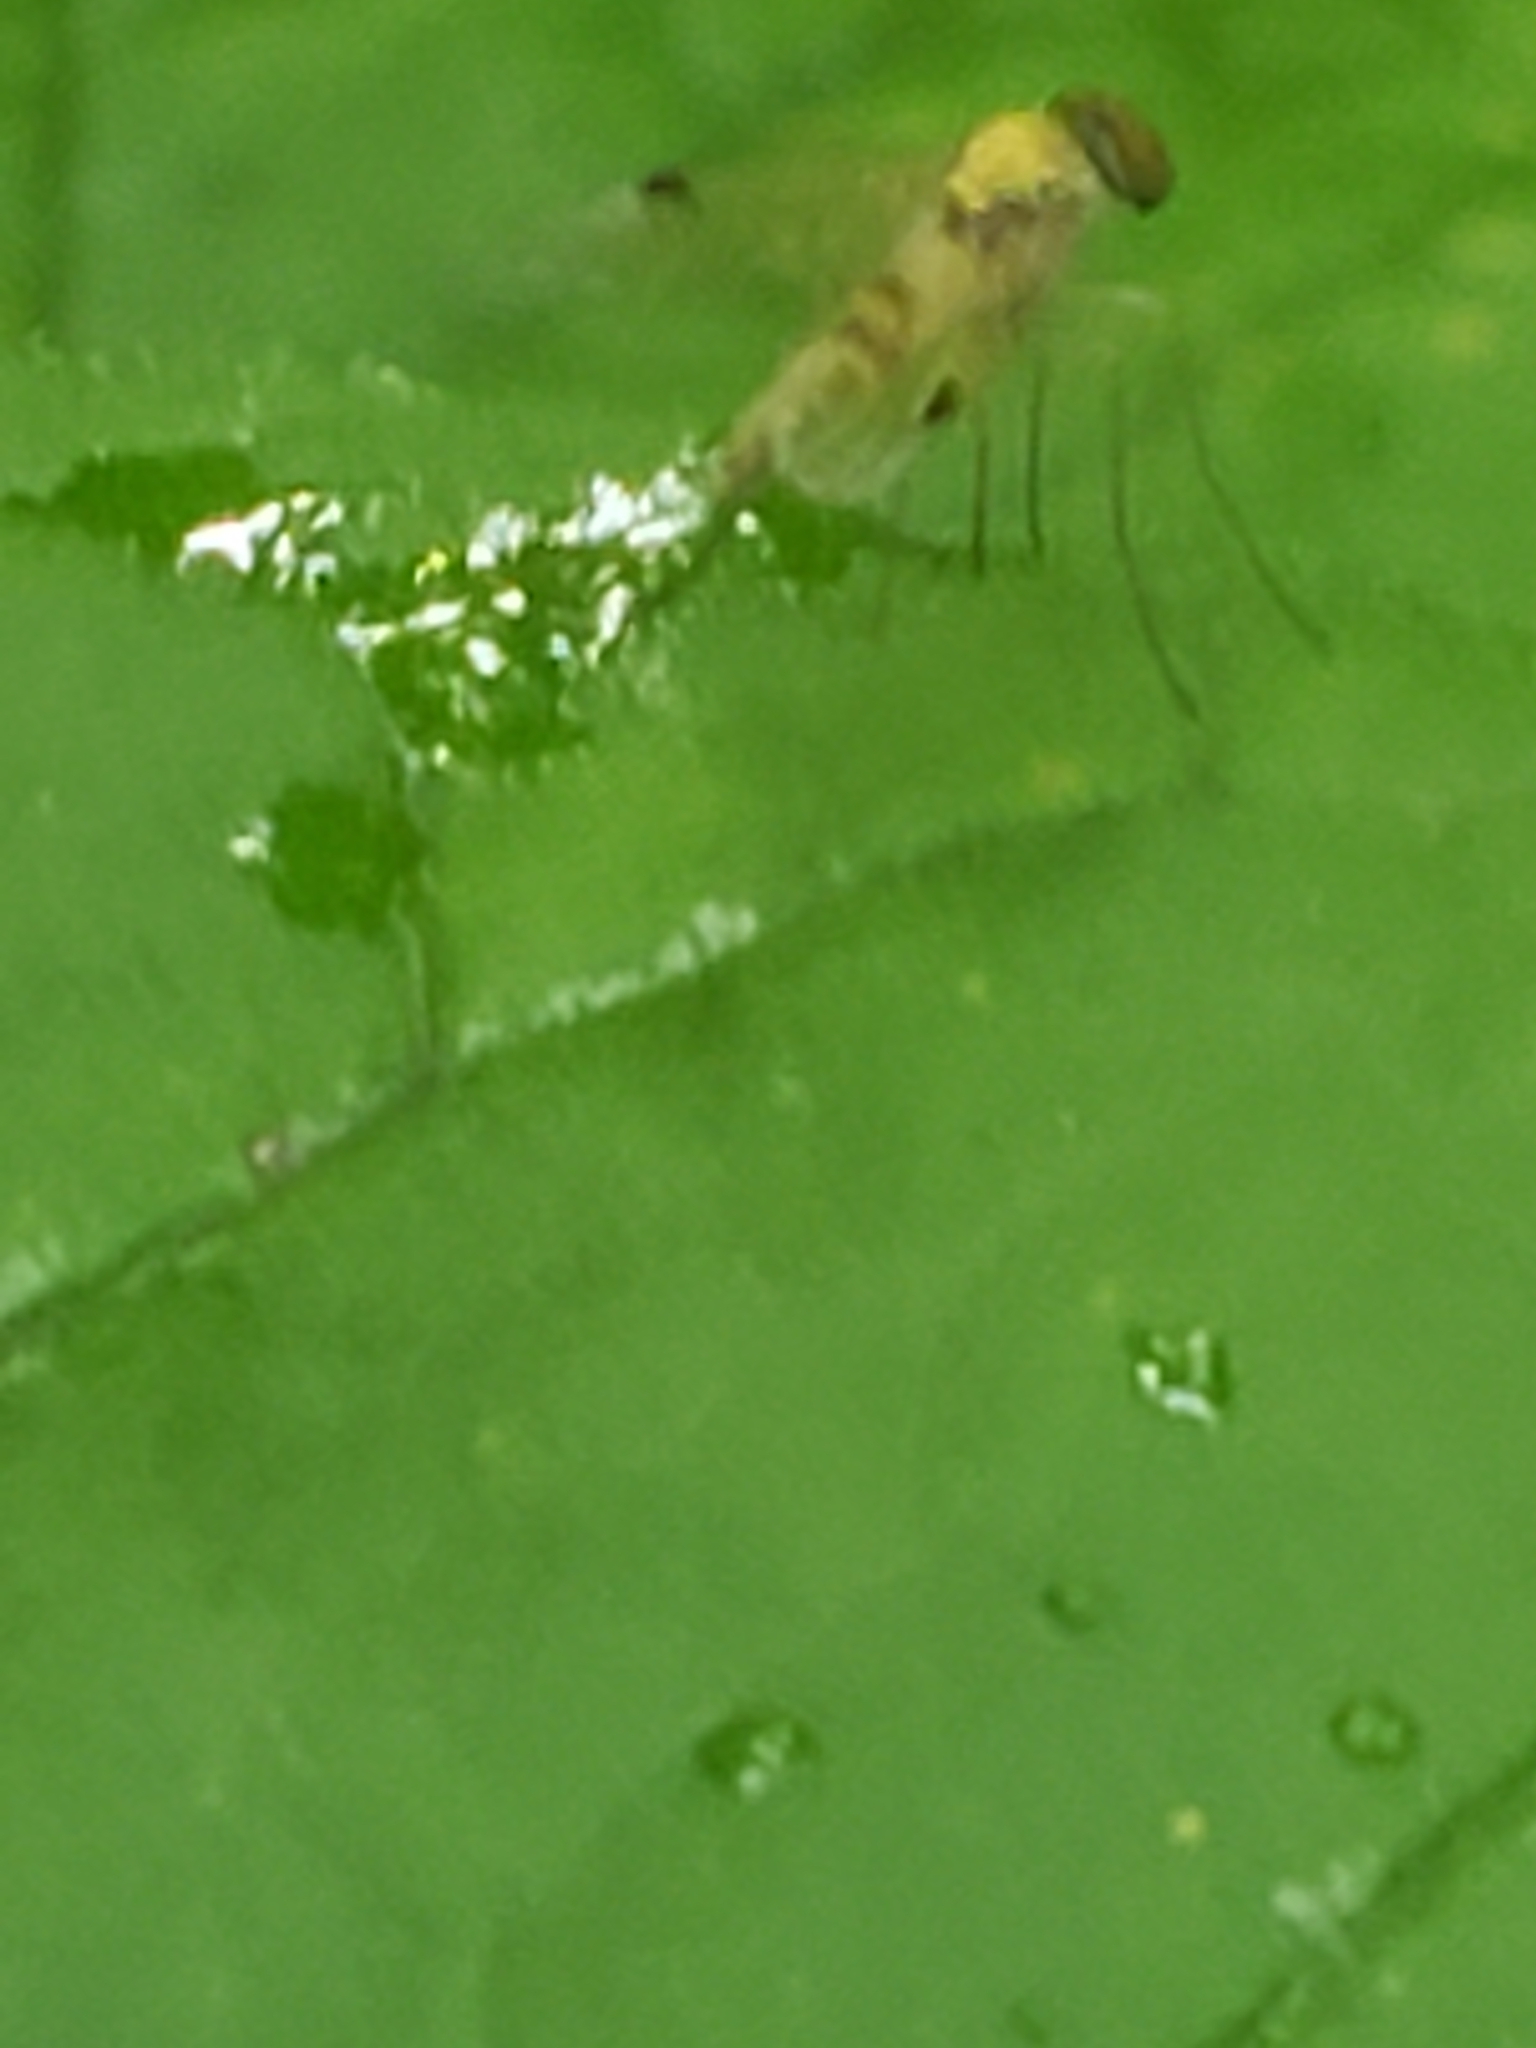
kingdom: Animalia
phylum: Arthropoda
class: Insecta
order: Diptera
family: Rhagionidae
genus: Chrysopilus
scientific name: Chrysopilus modestus
